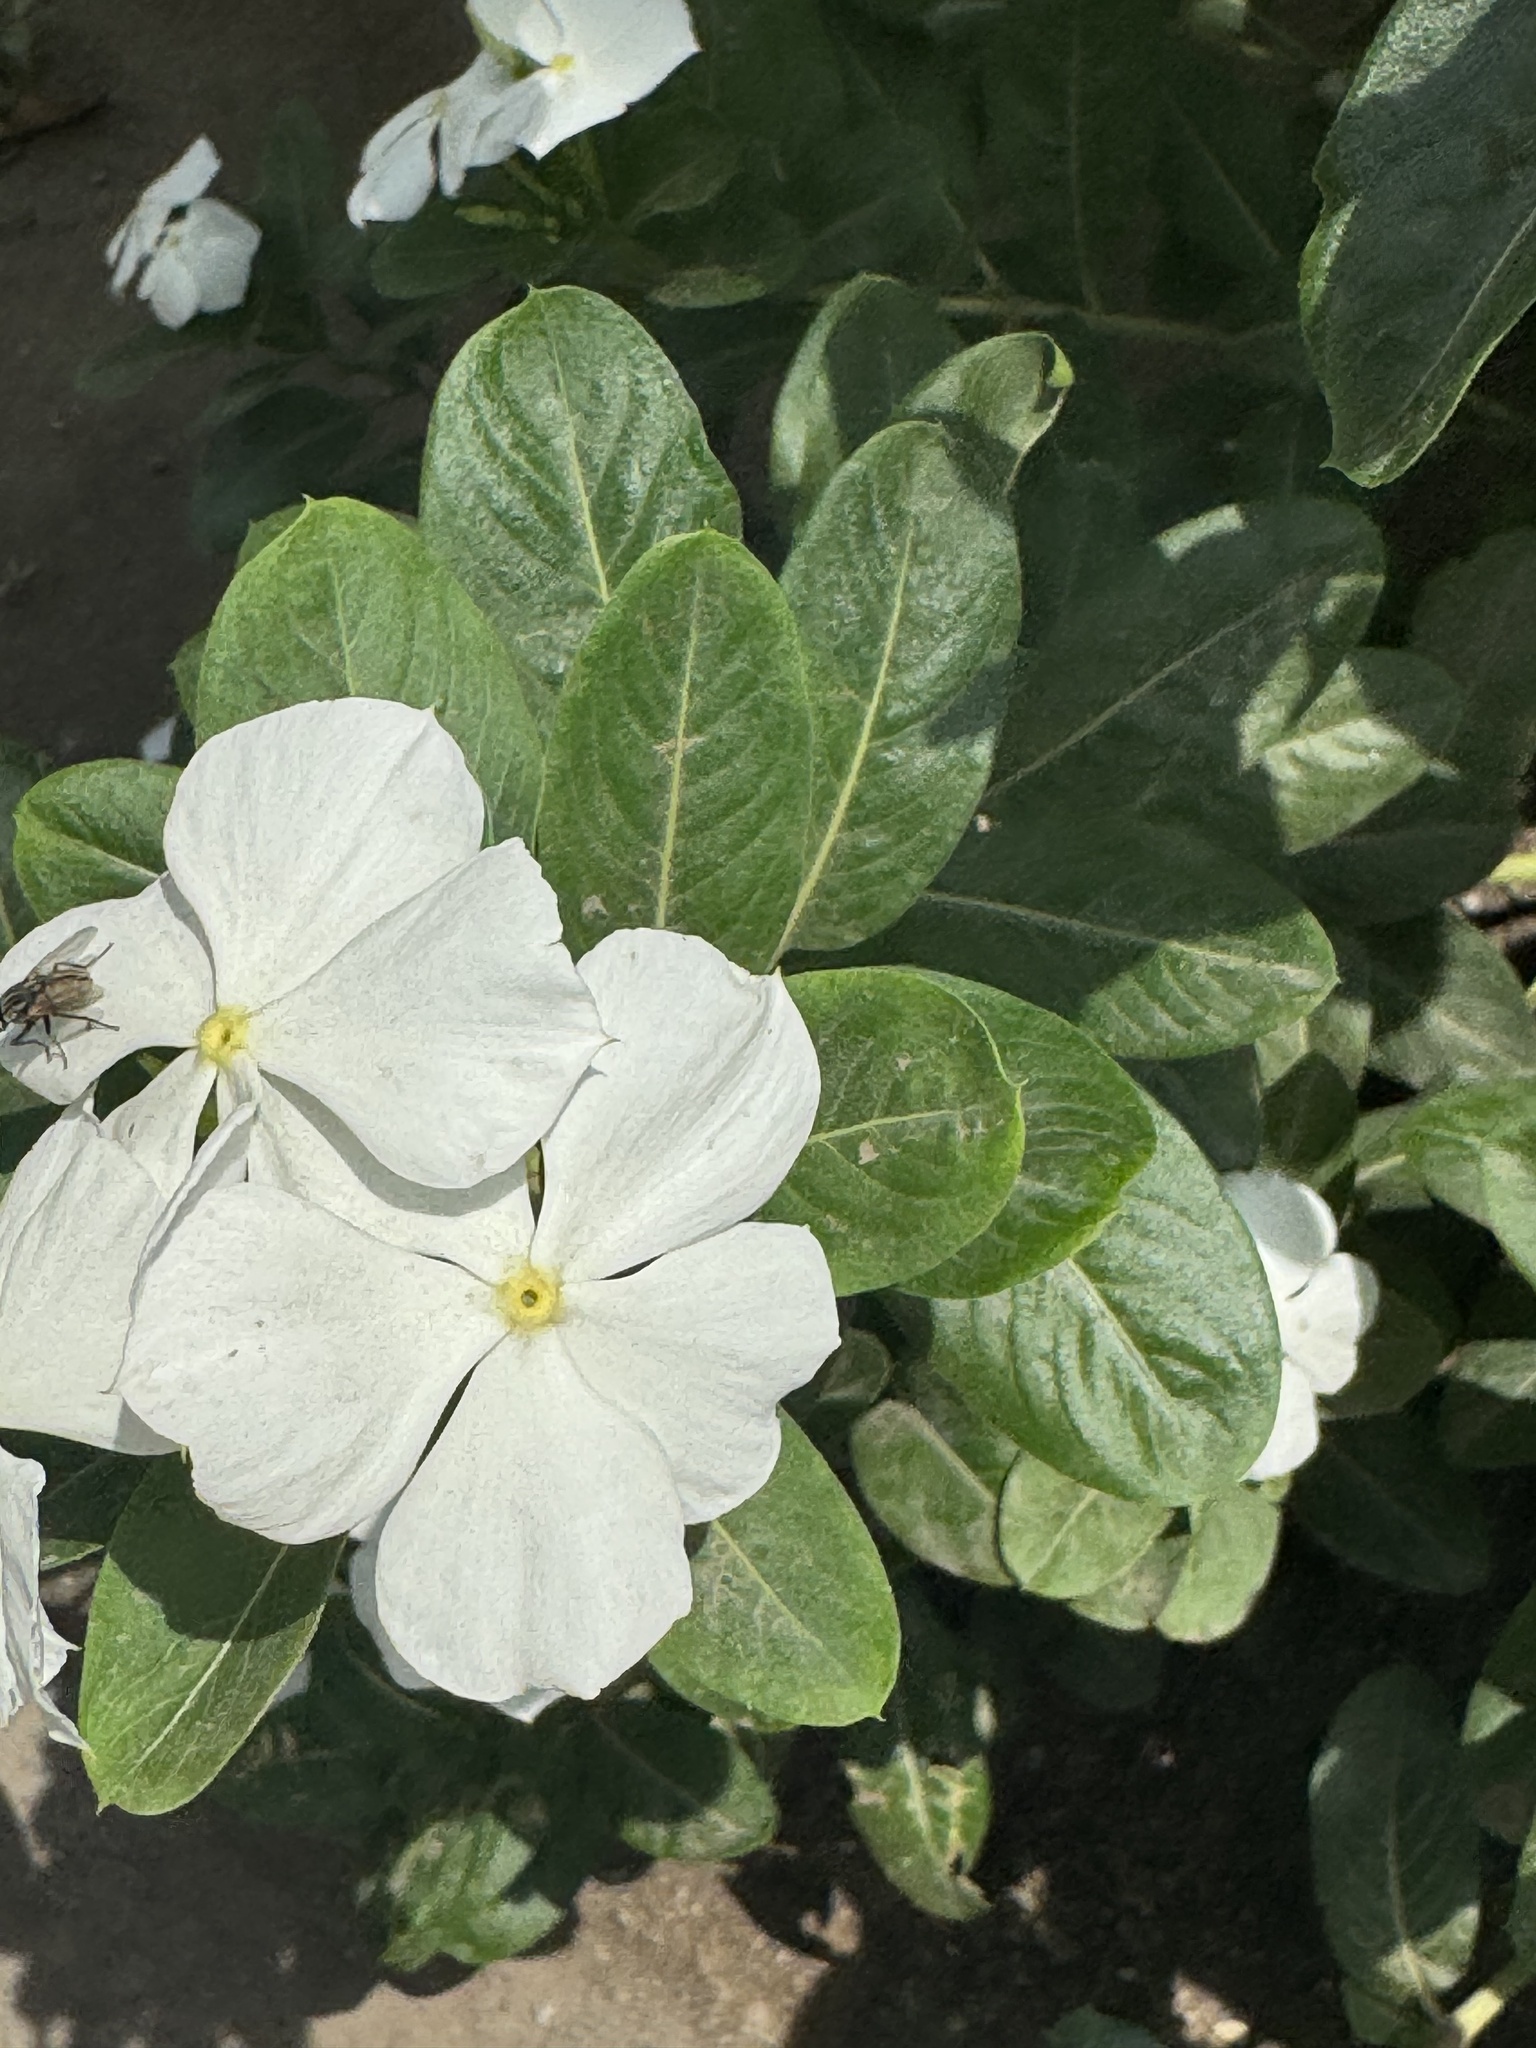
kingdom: Plantae
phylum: Tracheophyta
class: Magnoliopsida
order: Gentianales
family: Apocynaceae
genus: Catharanthus
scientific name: Catharanthus roseus
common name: Madagascar periwinkle
